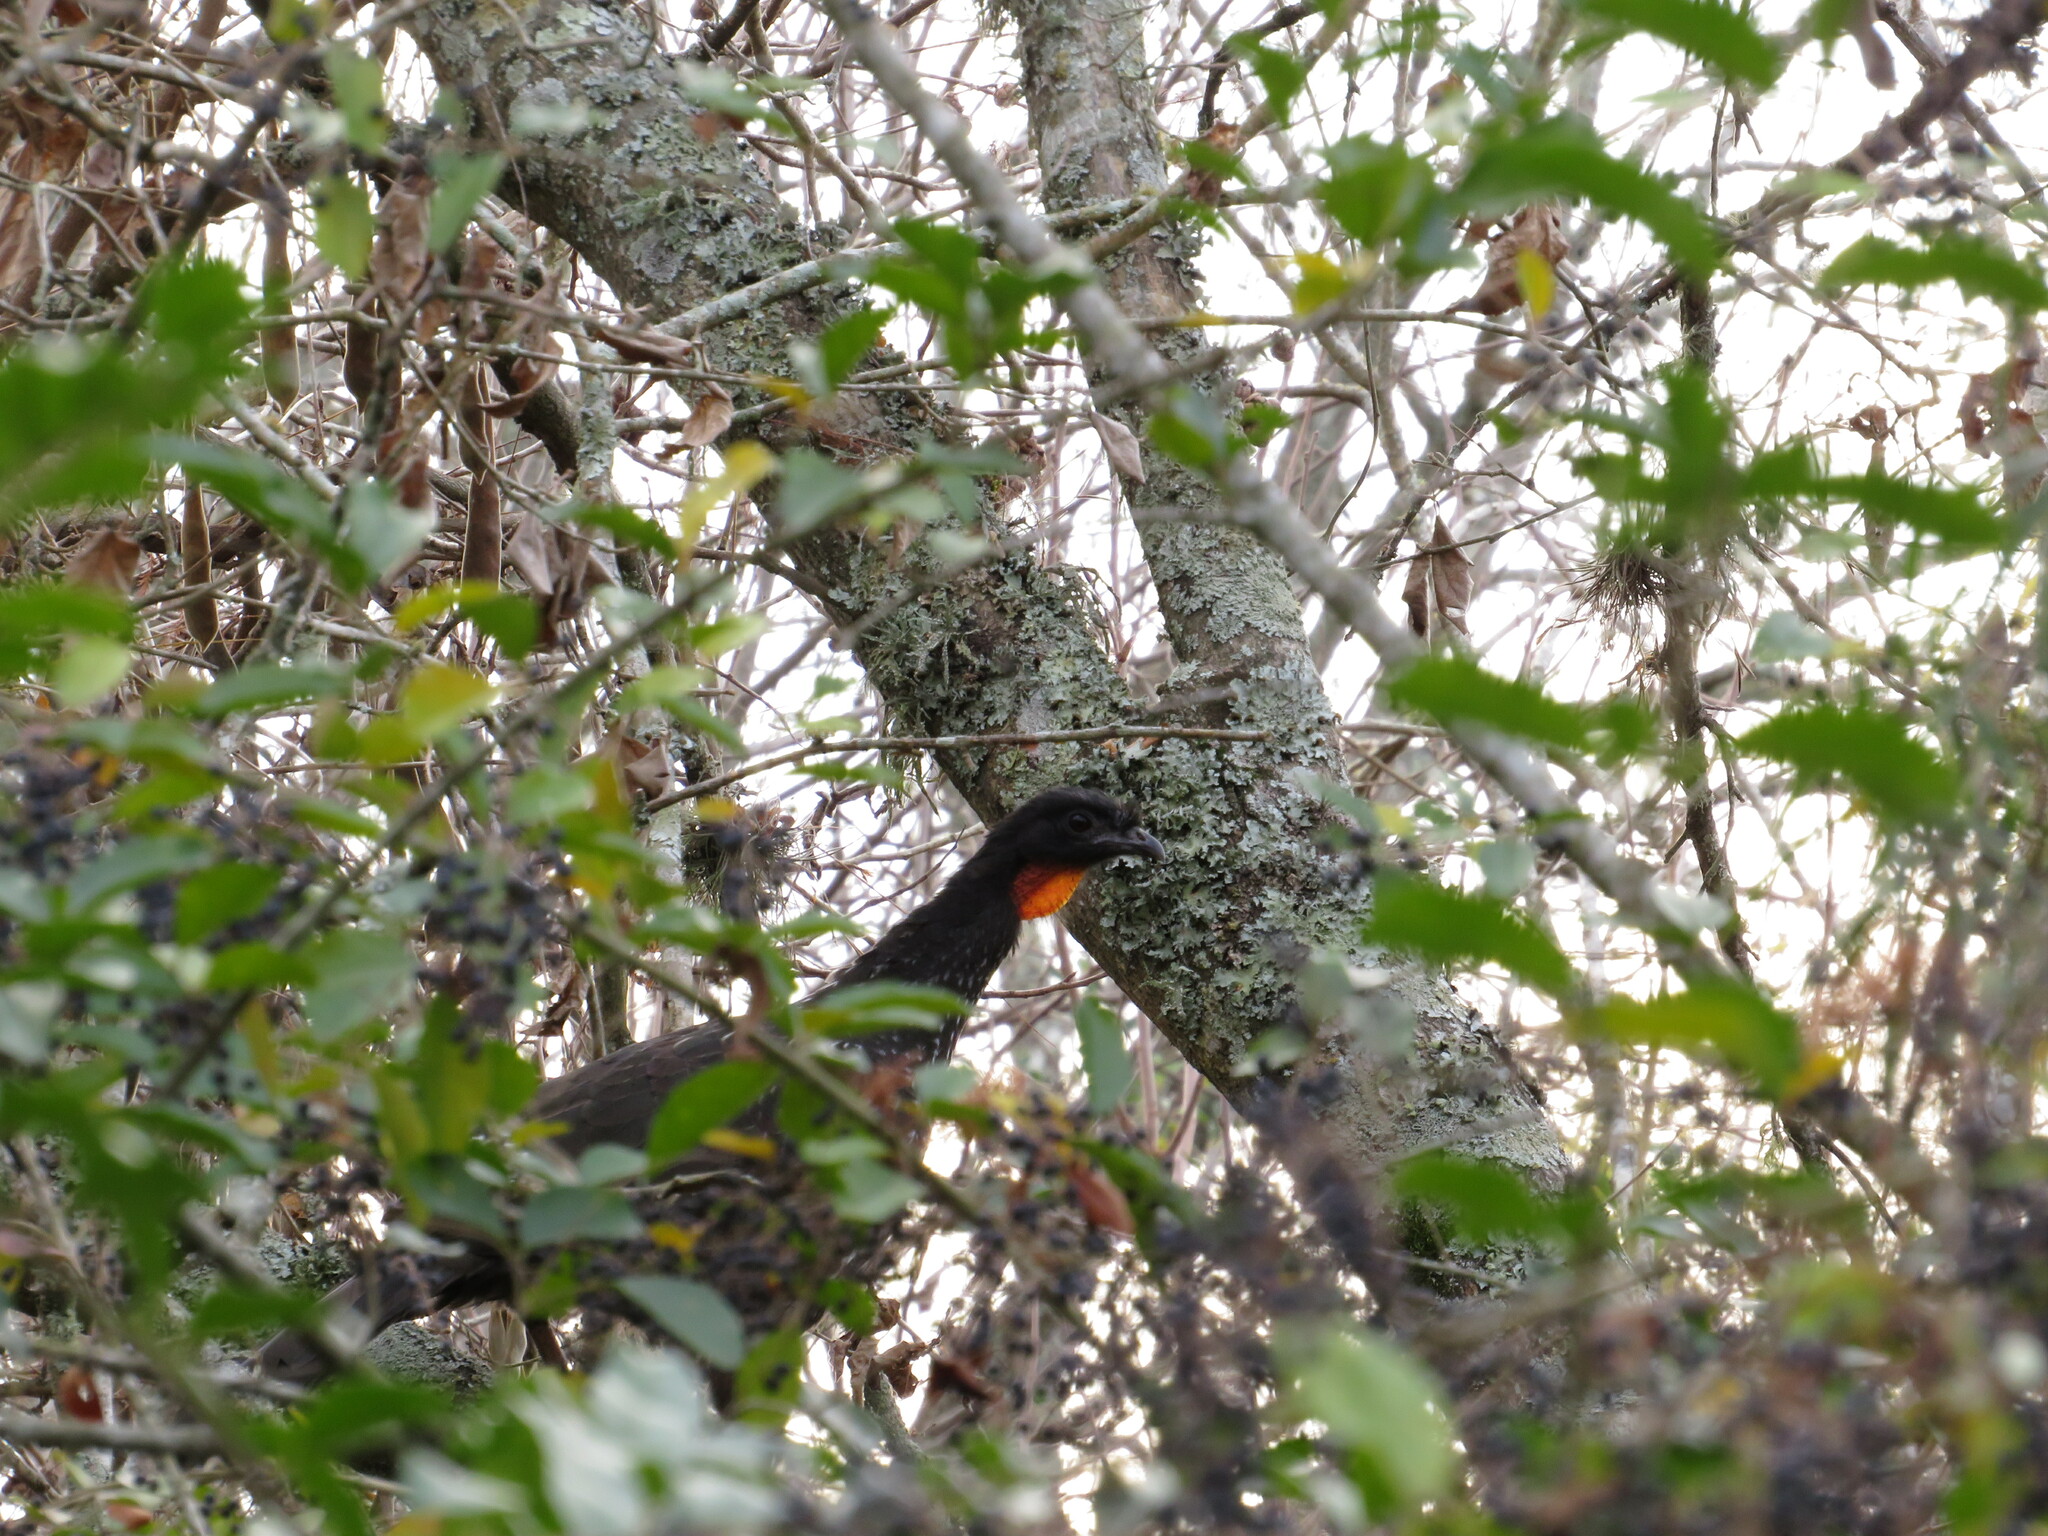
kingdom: Animalia
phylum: Chordata
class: Aves
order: Galliformes
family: Cracidae
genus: Penelope
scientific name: Penelope obscura
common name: Dusky-legged guan
